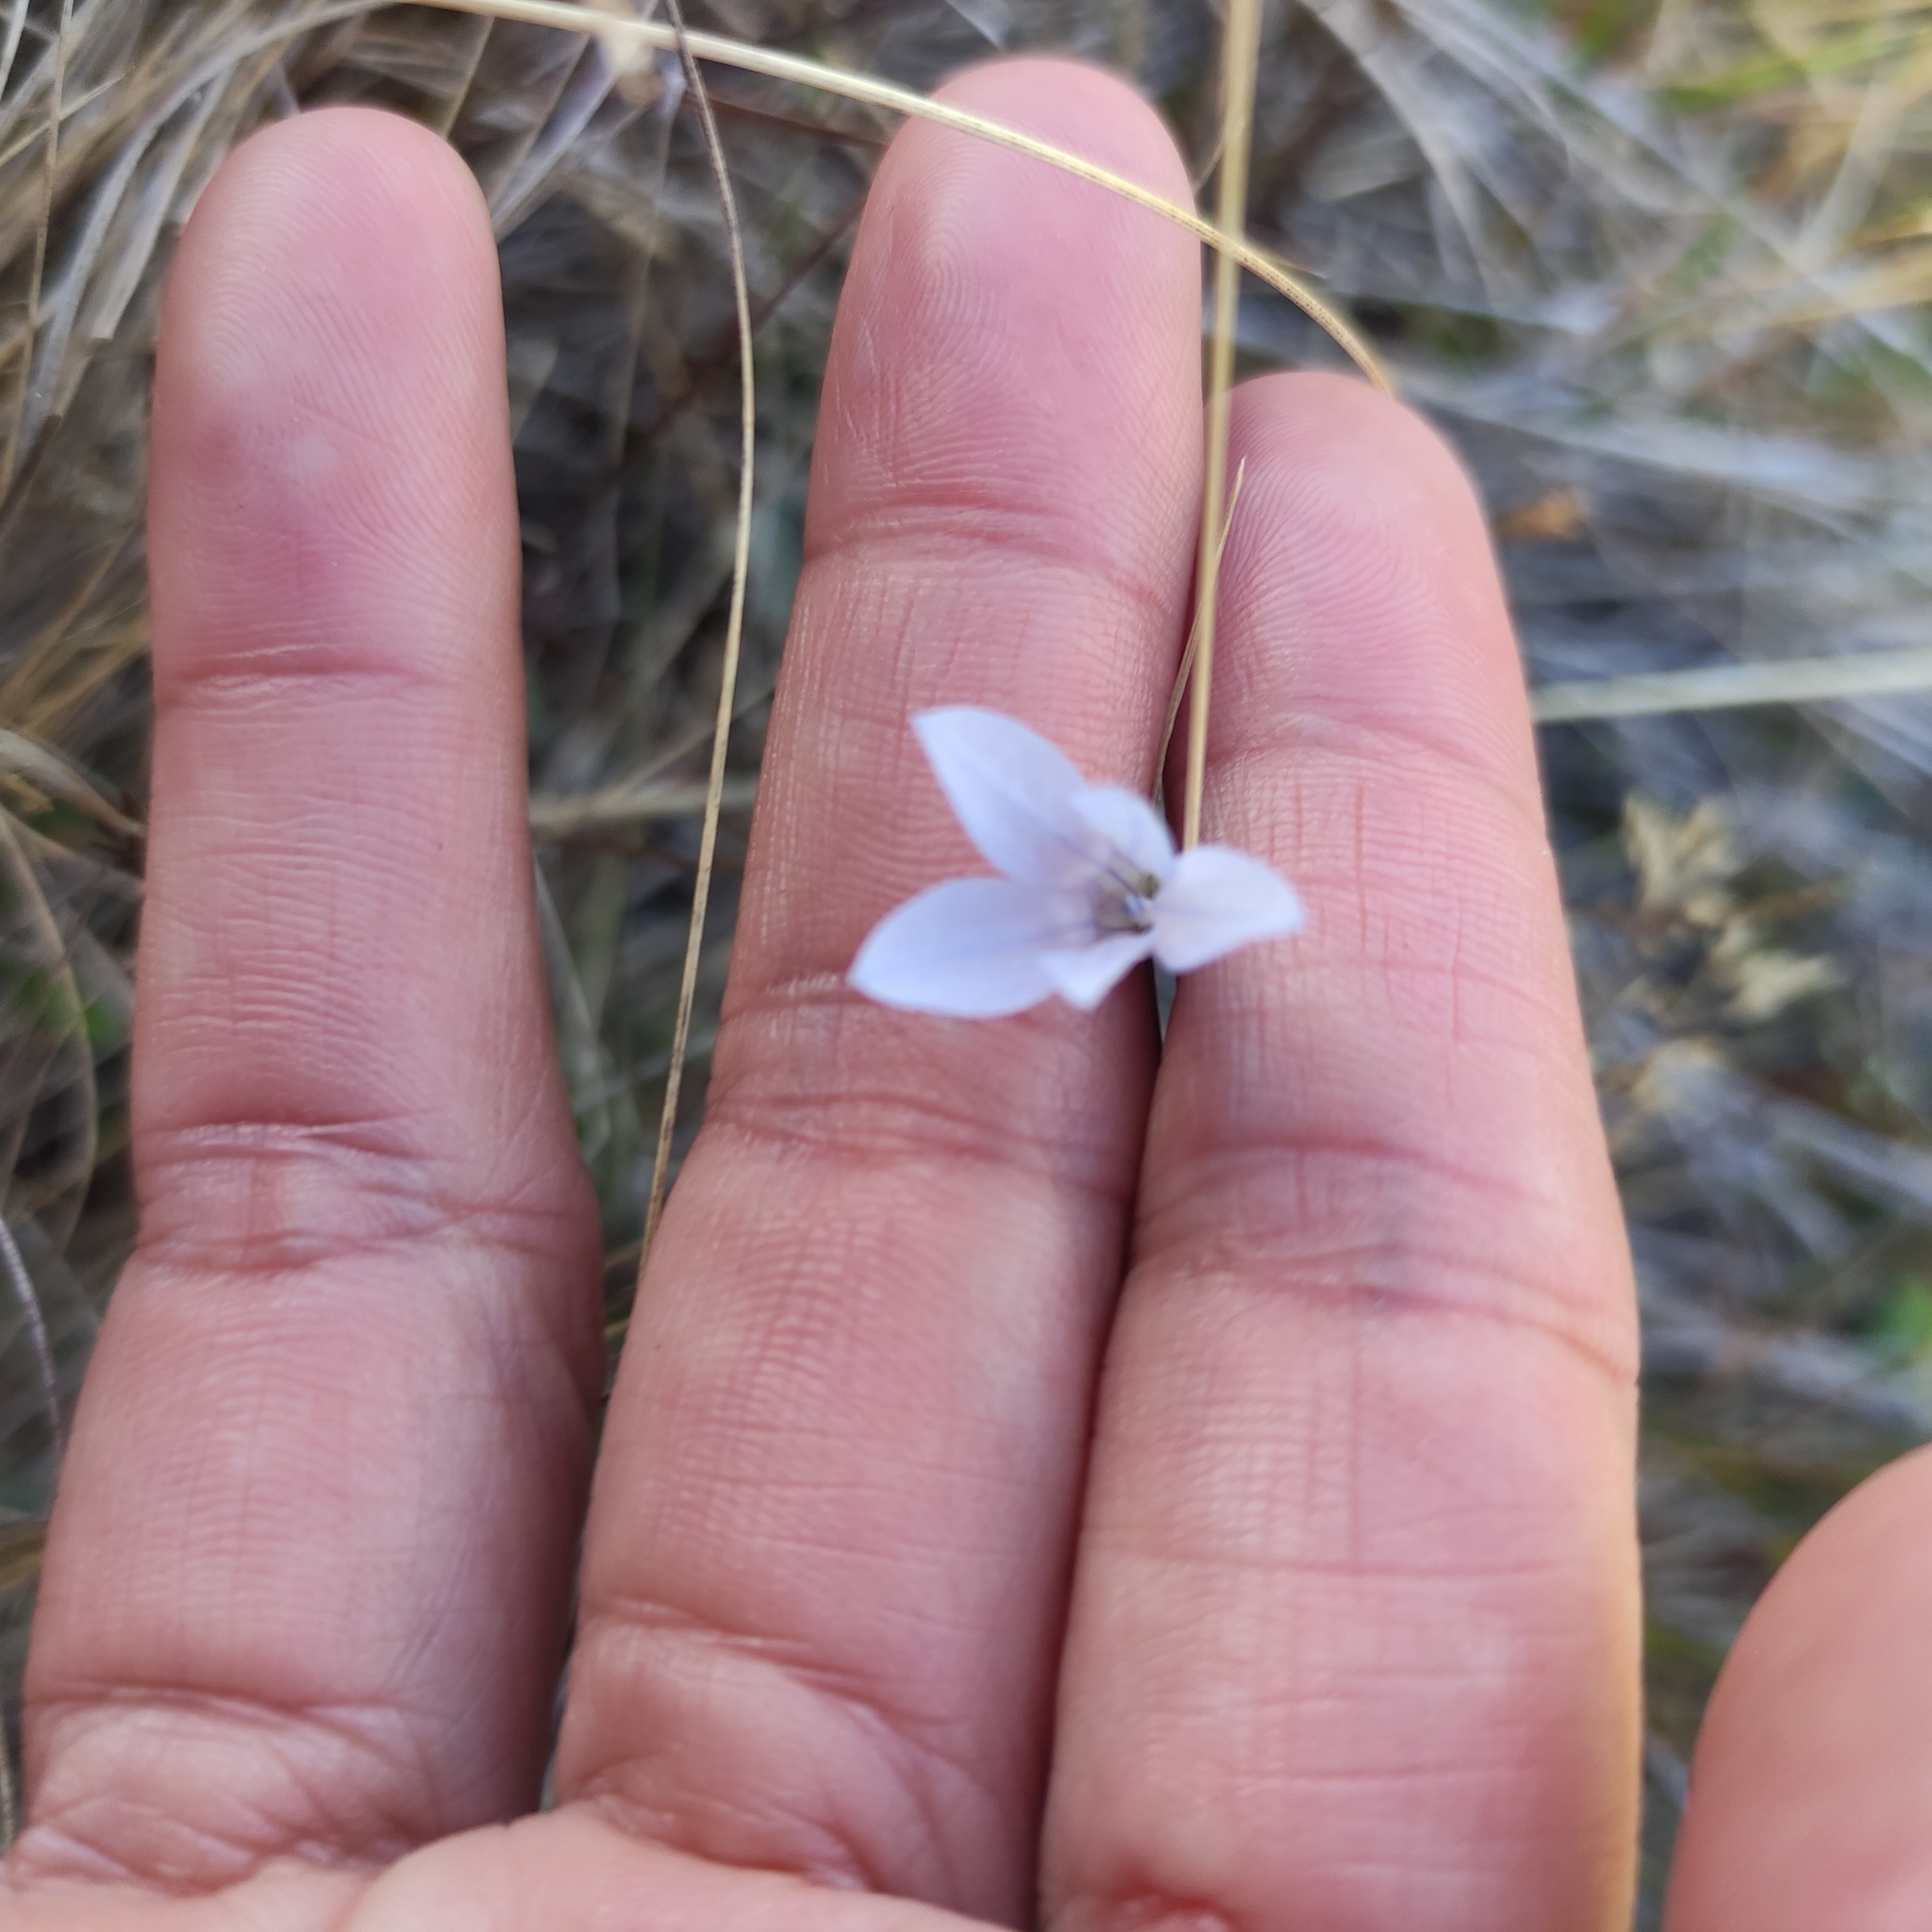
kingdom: Plantae
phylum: Tracheophyta
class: Magnoliopsida
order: Asterales
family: Campanulaceae
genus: Wahlenbergia
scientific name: Wahlenbergia albomarginata
